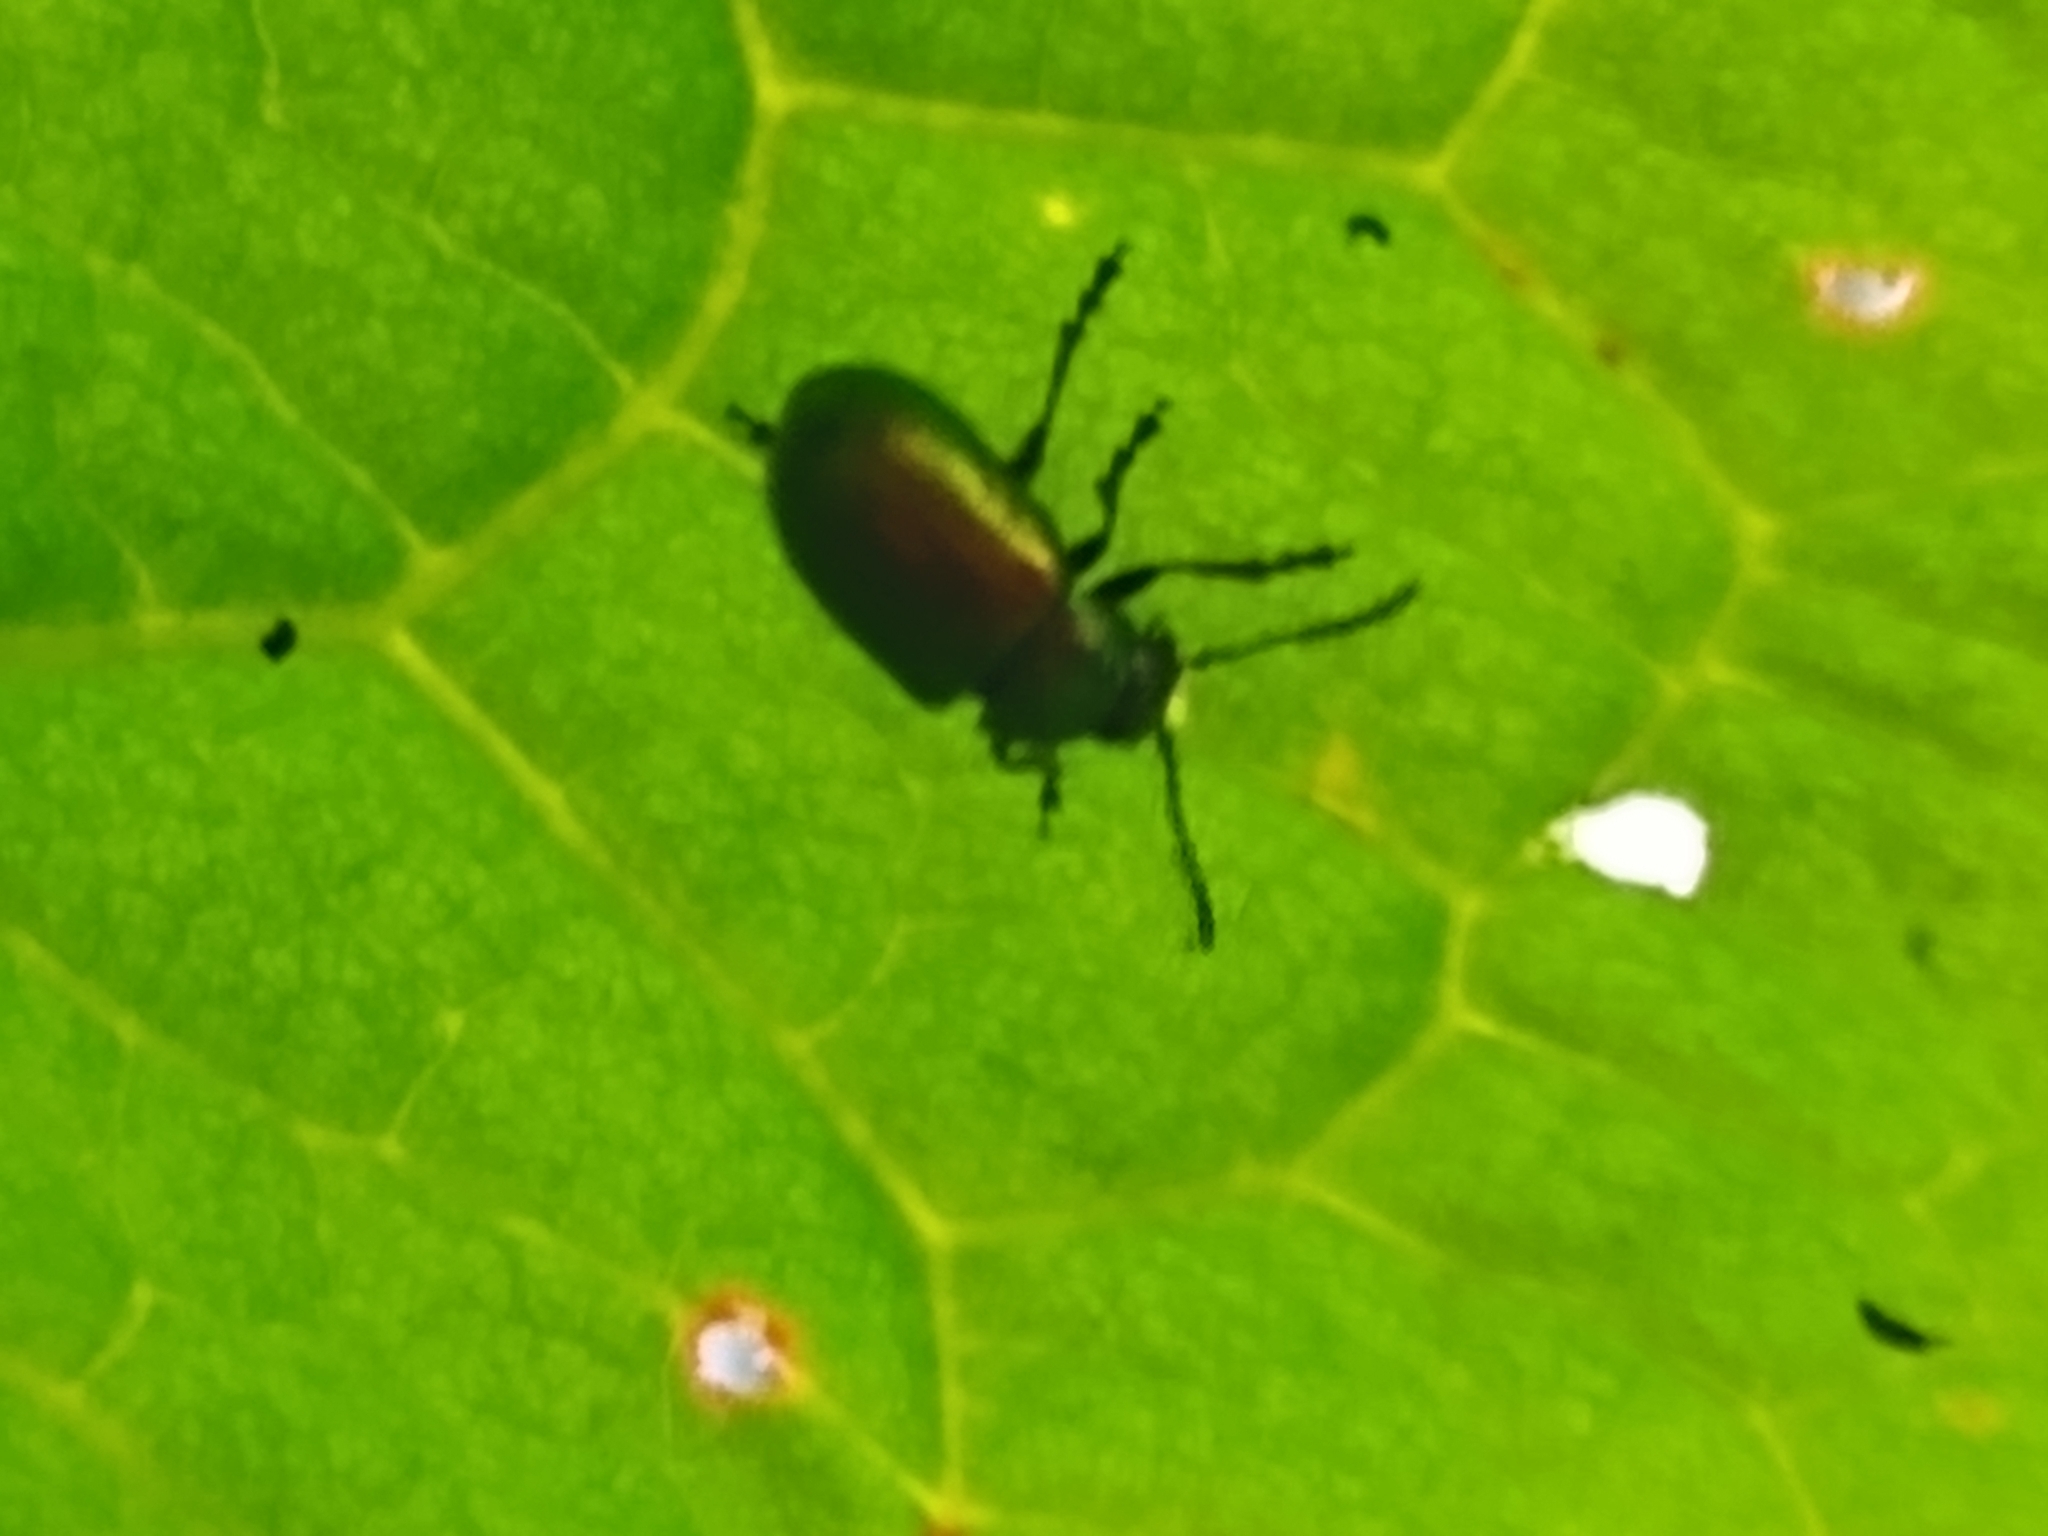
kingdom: Animalia
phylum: Arthropoda
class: Insecta
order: Coleoptera
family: Chrysomelidae
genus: Gastrophysa
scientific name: Gastrophysa viridula
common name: Green dock beetle
